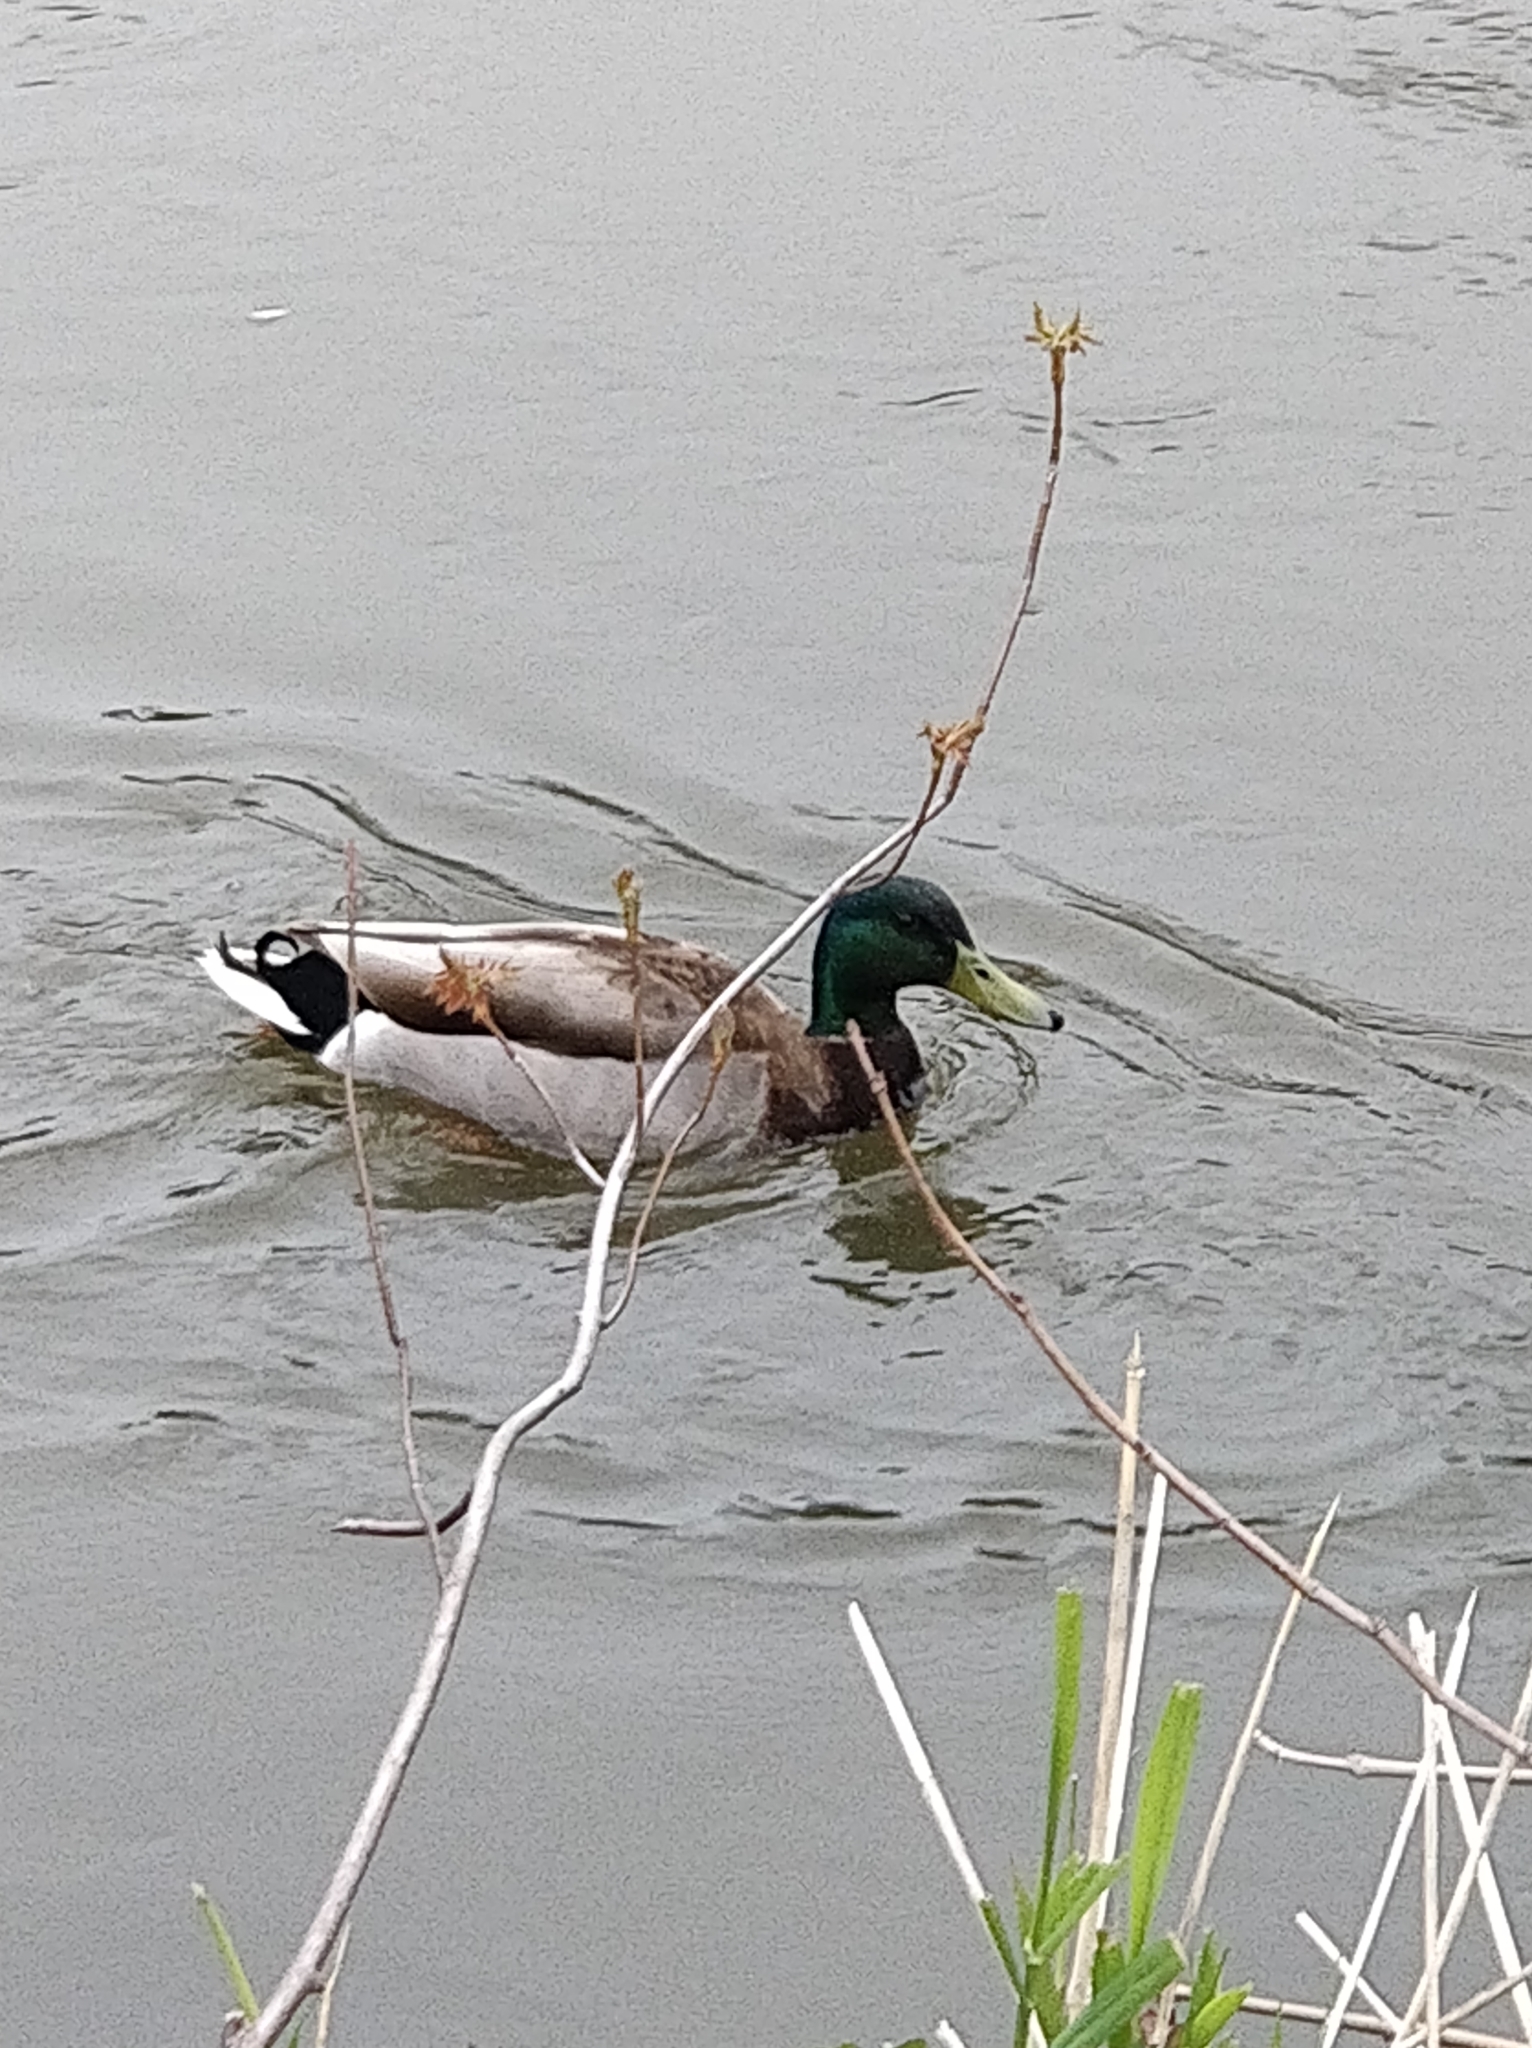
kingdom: Animalia
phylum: Chordata
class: Aves
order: Anseriformes
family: Anatidae
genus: Anas
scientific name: Anas platyrhynchos
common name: Mallard
